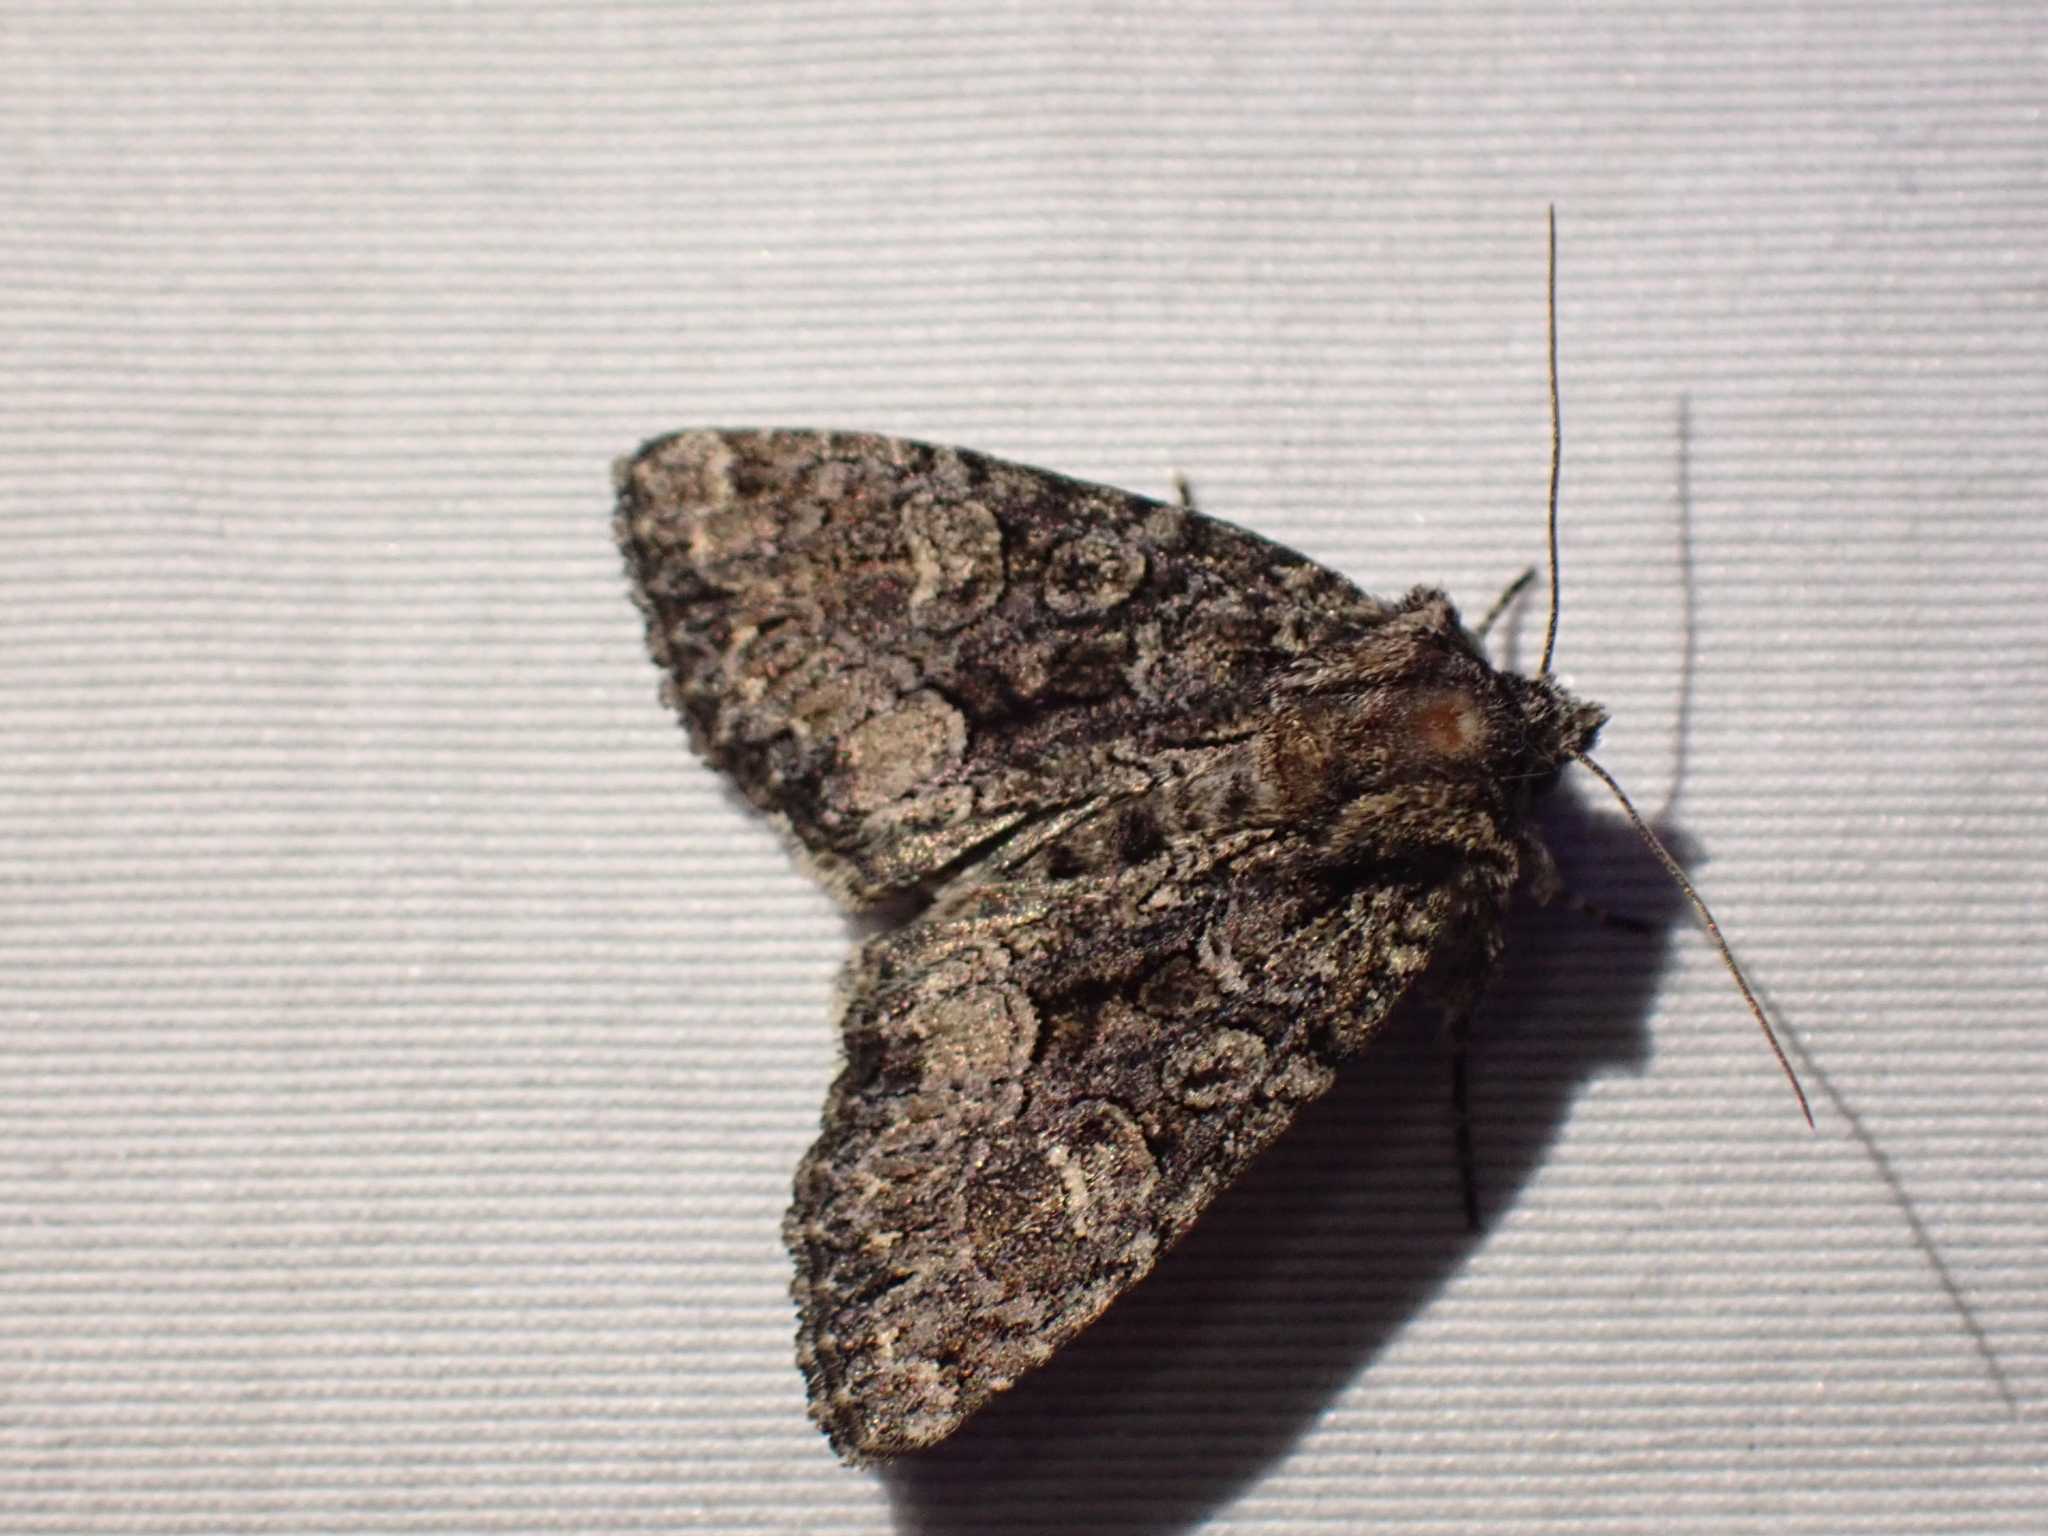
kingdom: Animalia
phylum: Arthropoda
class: Insecta
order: Lepidoptera
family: Noctuidae
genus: Platypolia
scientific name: Platypolia mactata
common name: Adorable brocade moth
